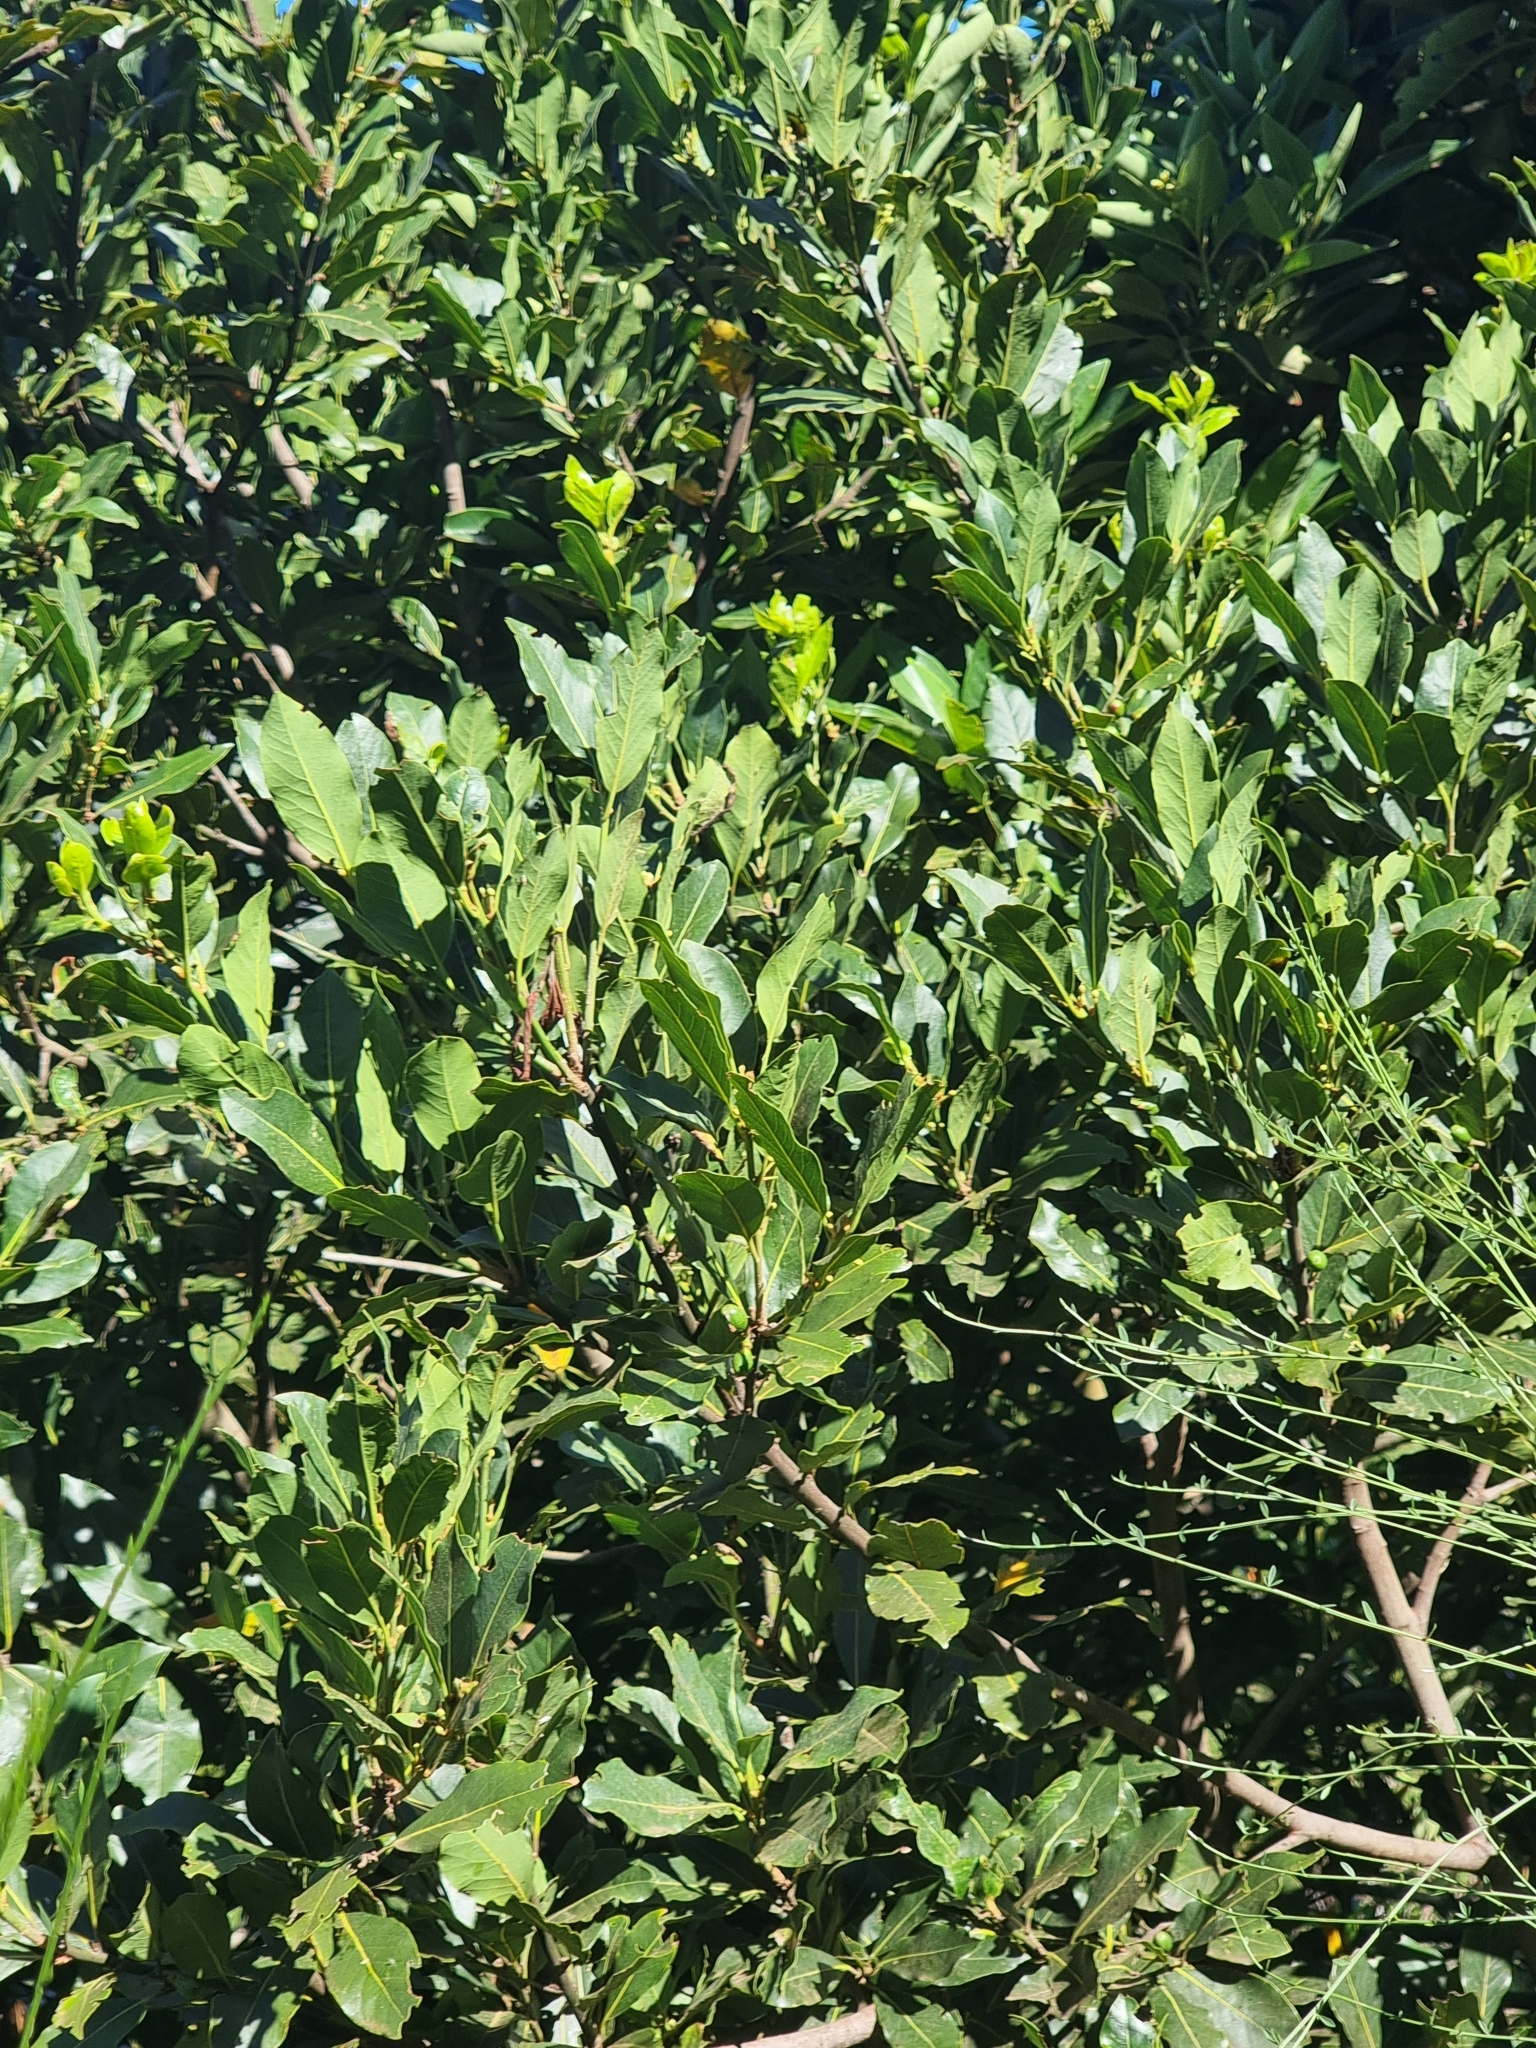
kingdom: Plantae
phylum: Tracheophyta
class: Magnoliopsida
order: Laurales
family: Lauraceae
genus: Laurus
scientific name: Laurus novocanariensis
